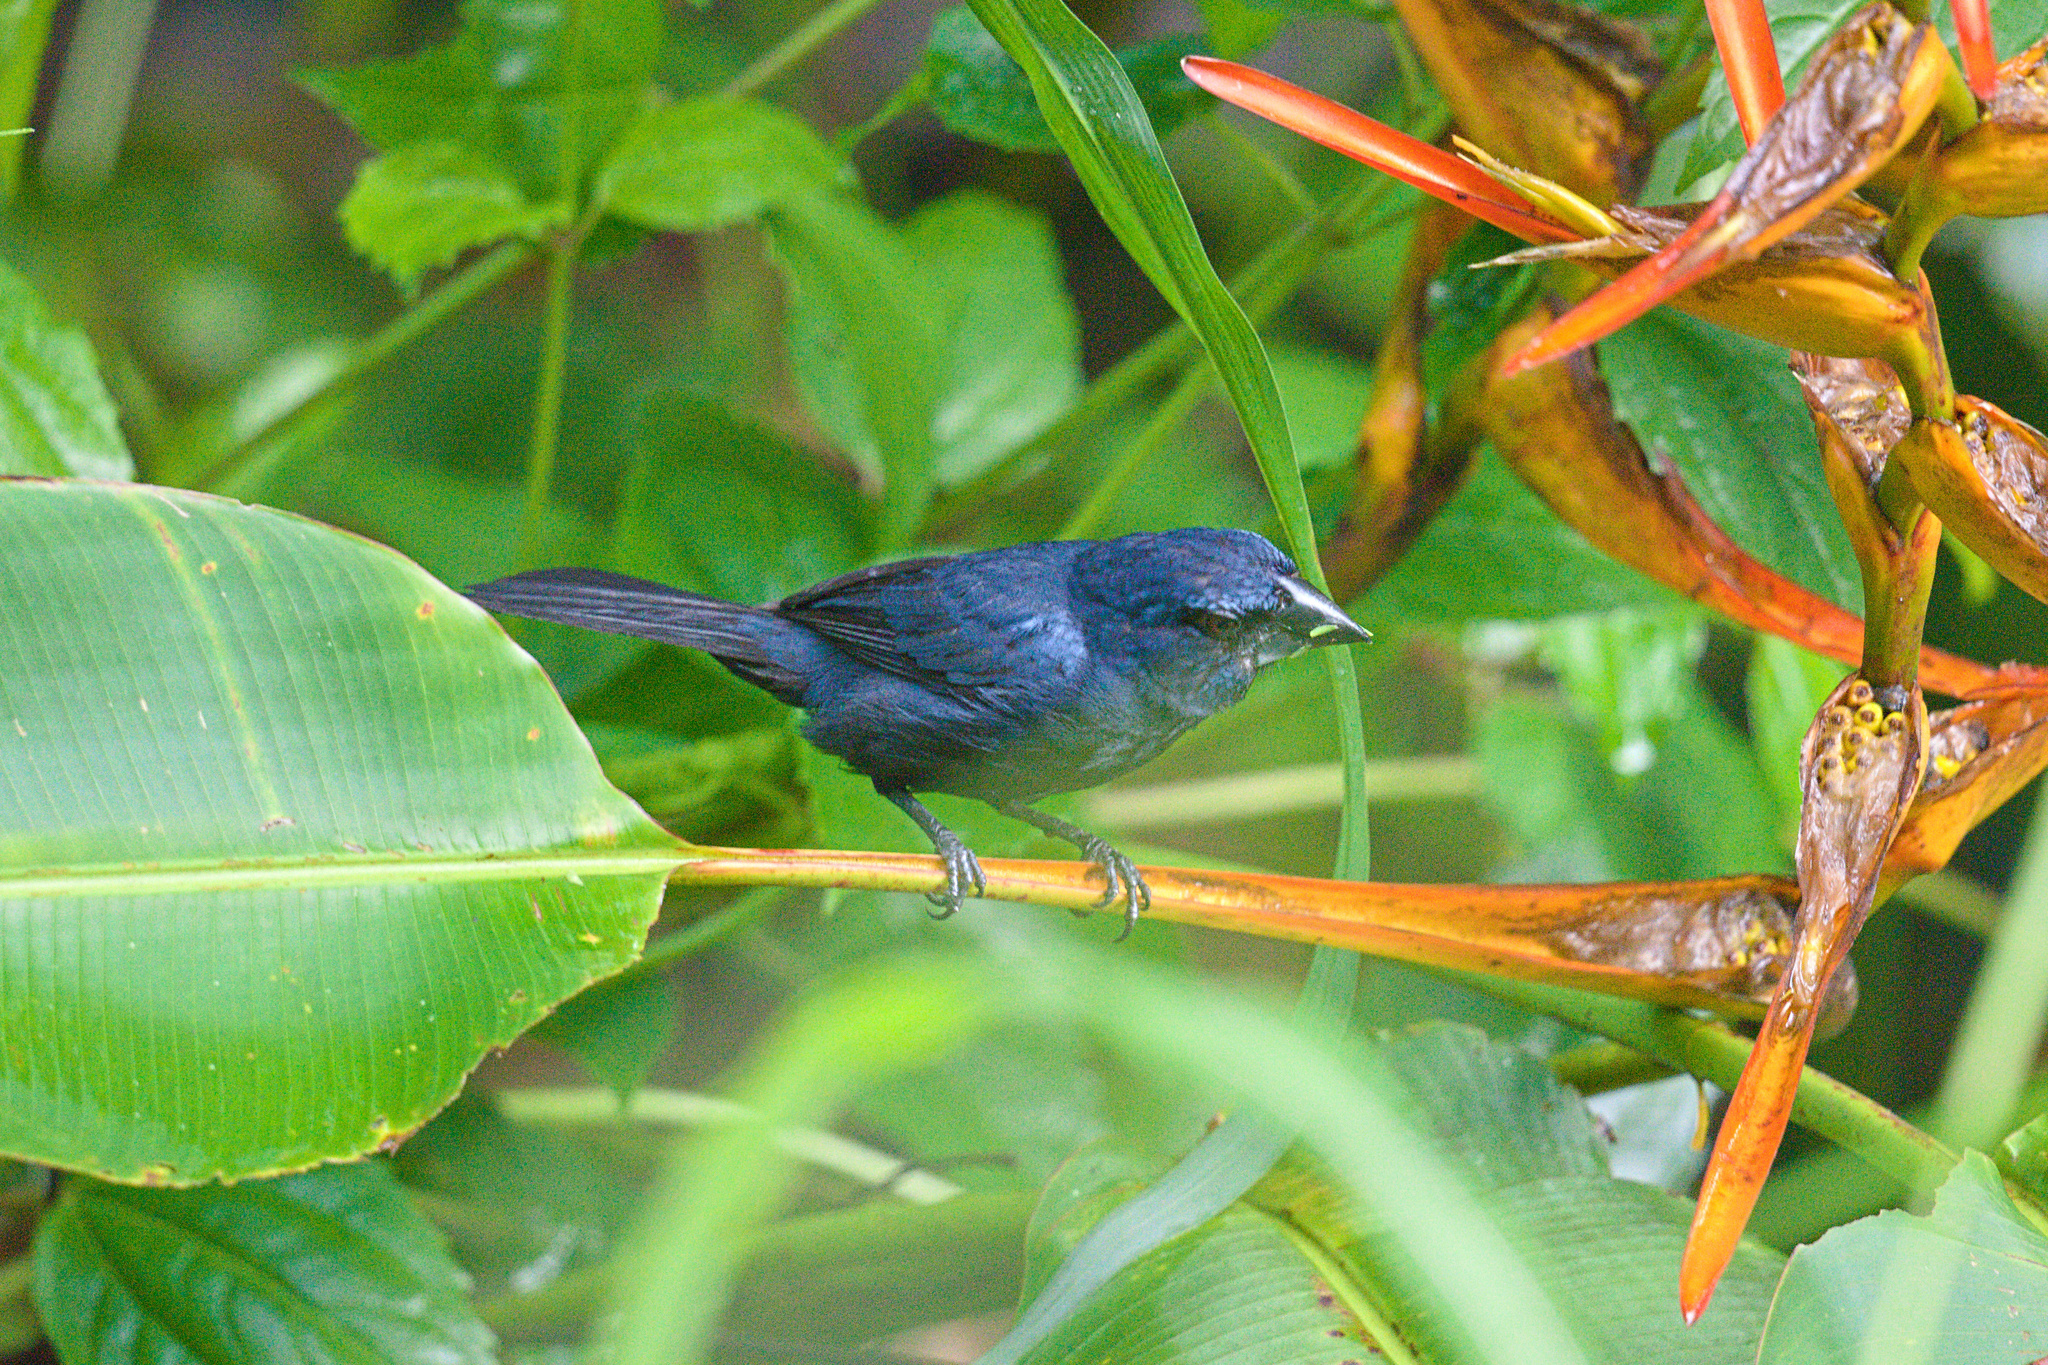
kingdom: Animalia
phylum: Chordata
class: Aves
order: Passeriformes
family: Cardinalidae
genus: Cyanocompsa
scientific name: Cyanocompsa cyanoides
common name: Blue-black grosbeak
